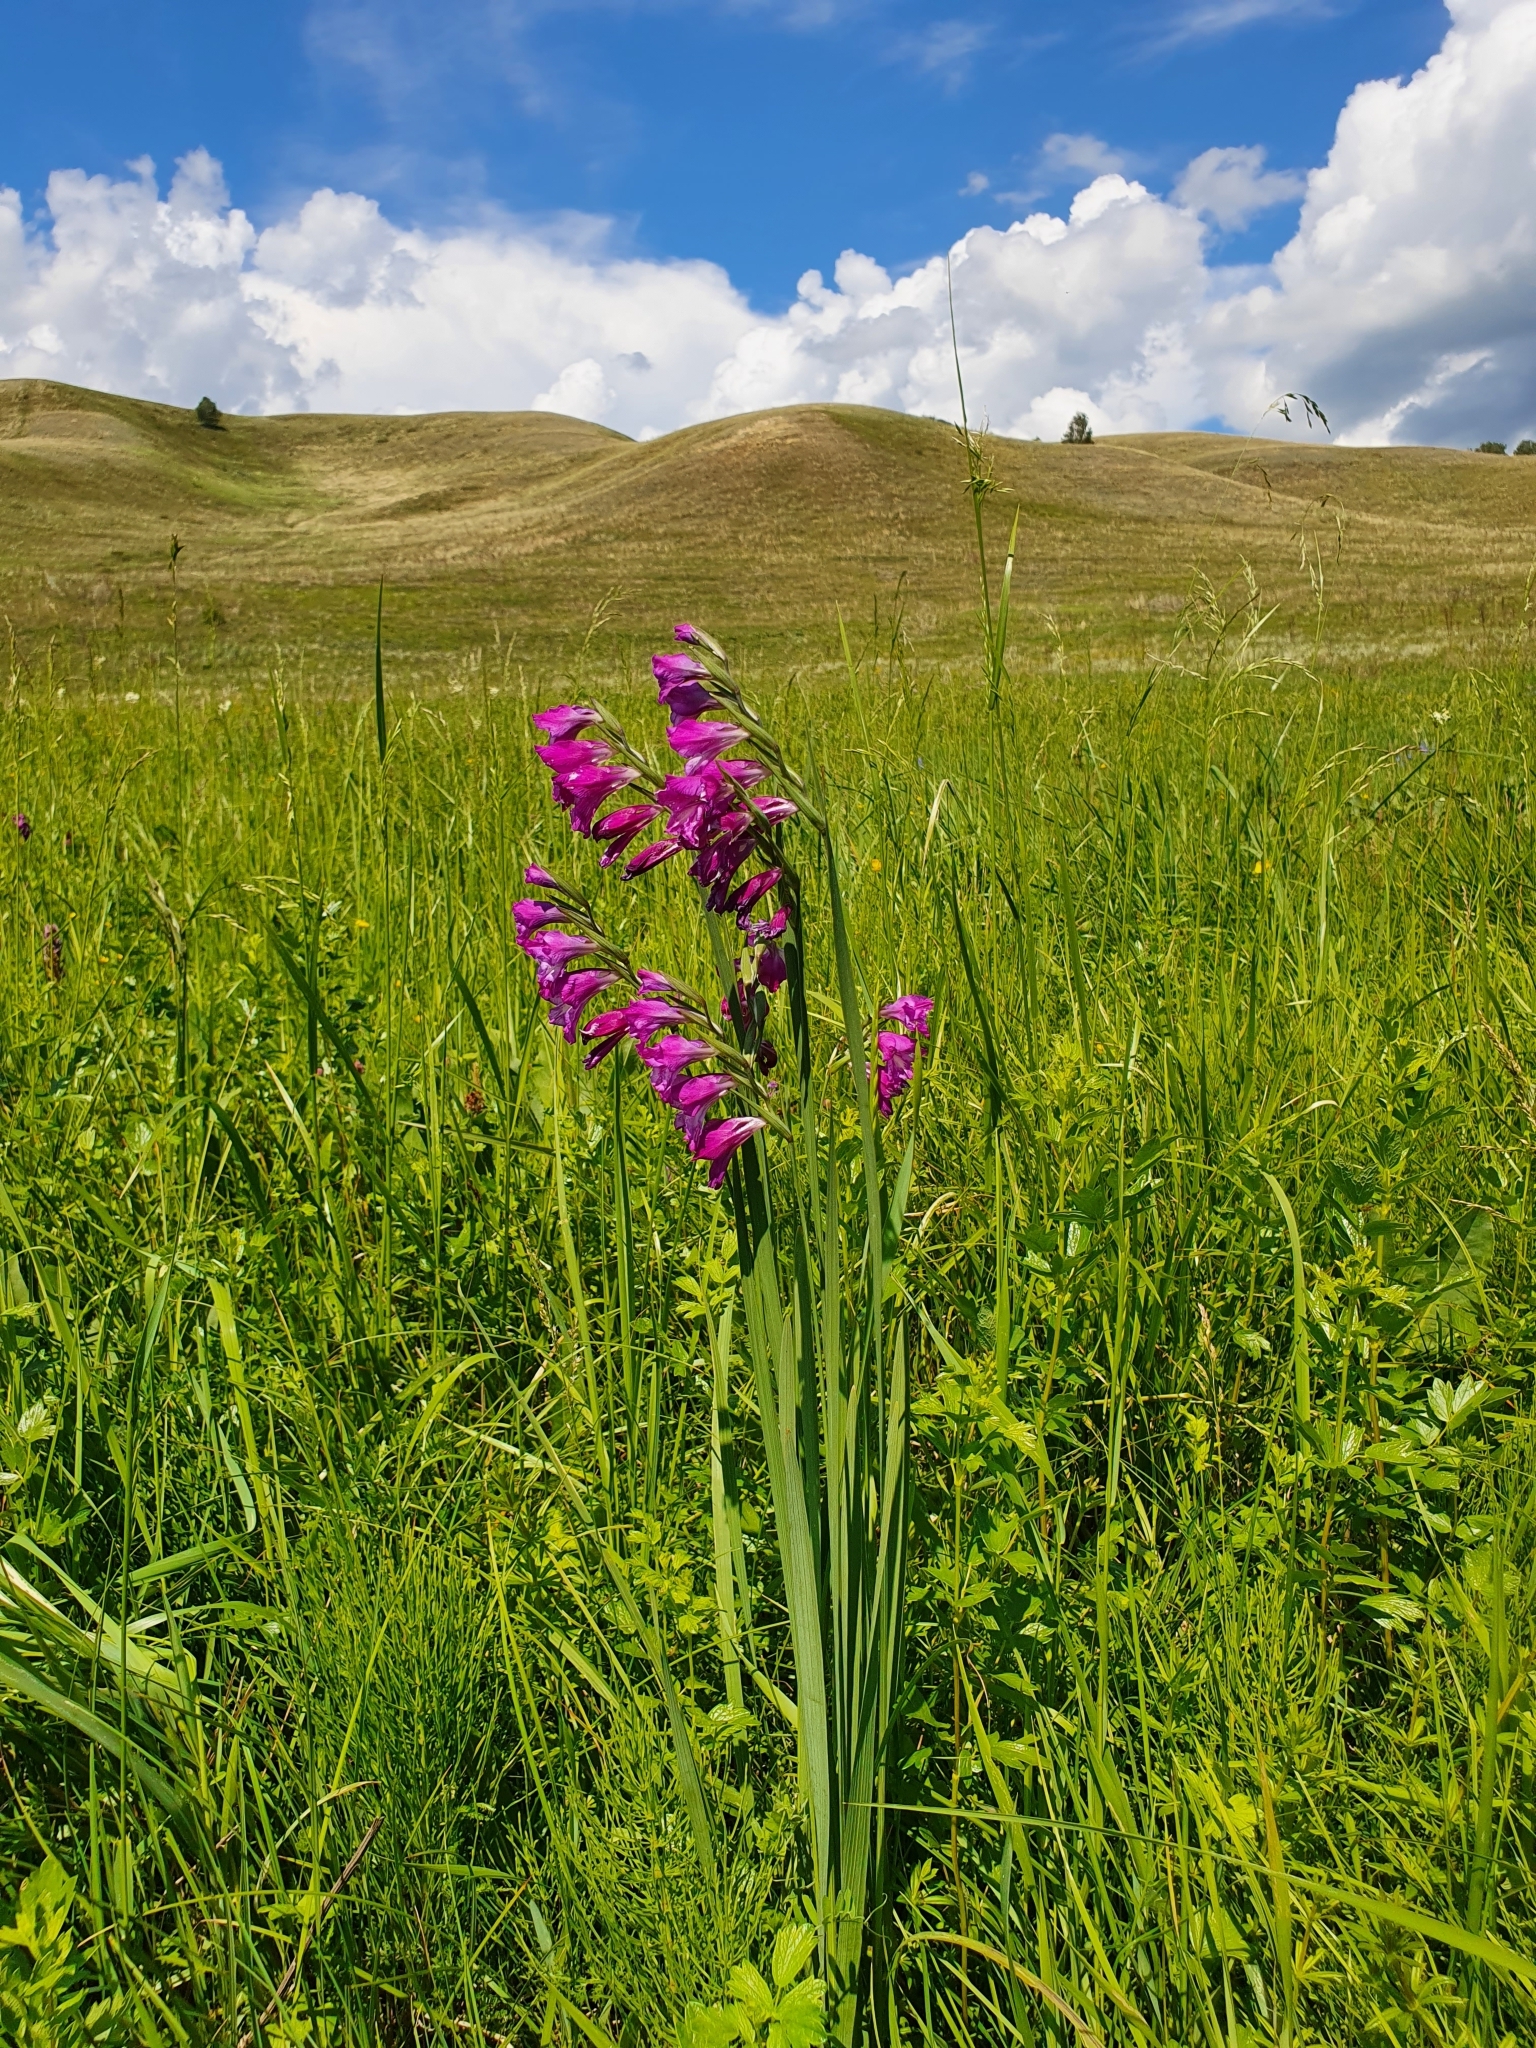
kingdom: Plantae
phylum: Tracheophyta
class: Liliopsida
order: Asparagales
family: Iridaceae
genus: Gladiolus
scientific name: Gladiolus tenuis
